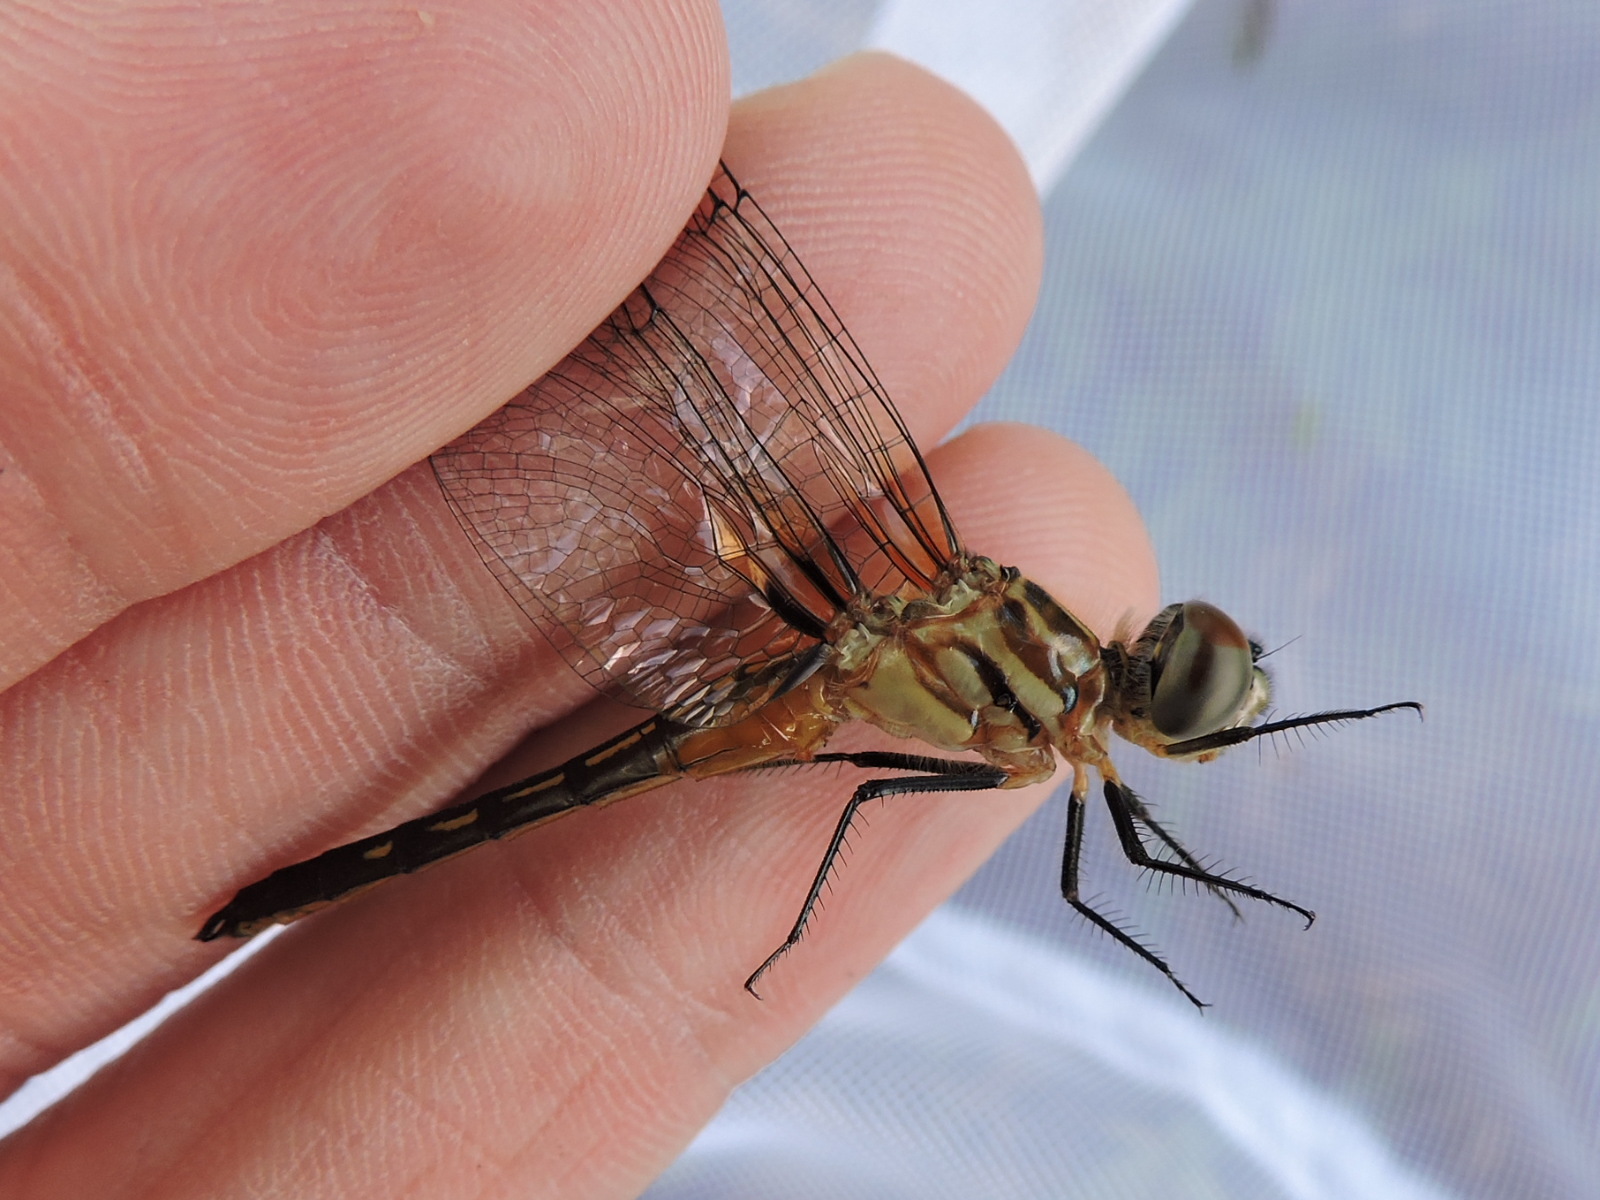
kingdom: Animalia
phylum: Arthropoda
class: Insecta
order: Odonata
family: Libellulidae
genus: Pachydiplax
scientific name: Pachydiplax longipennis
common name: Blue dasher
